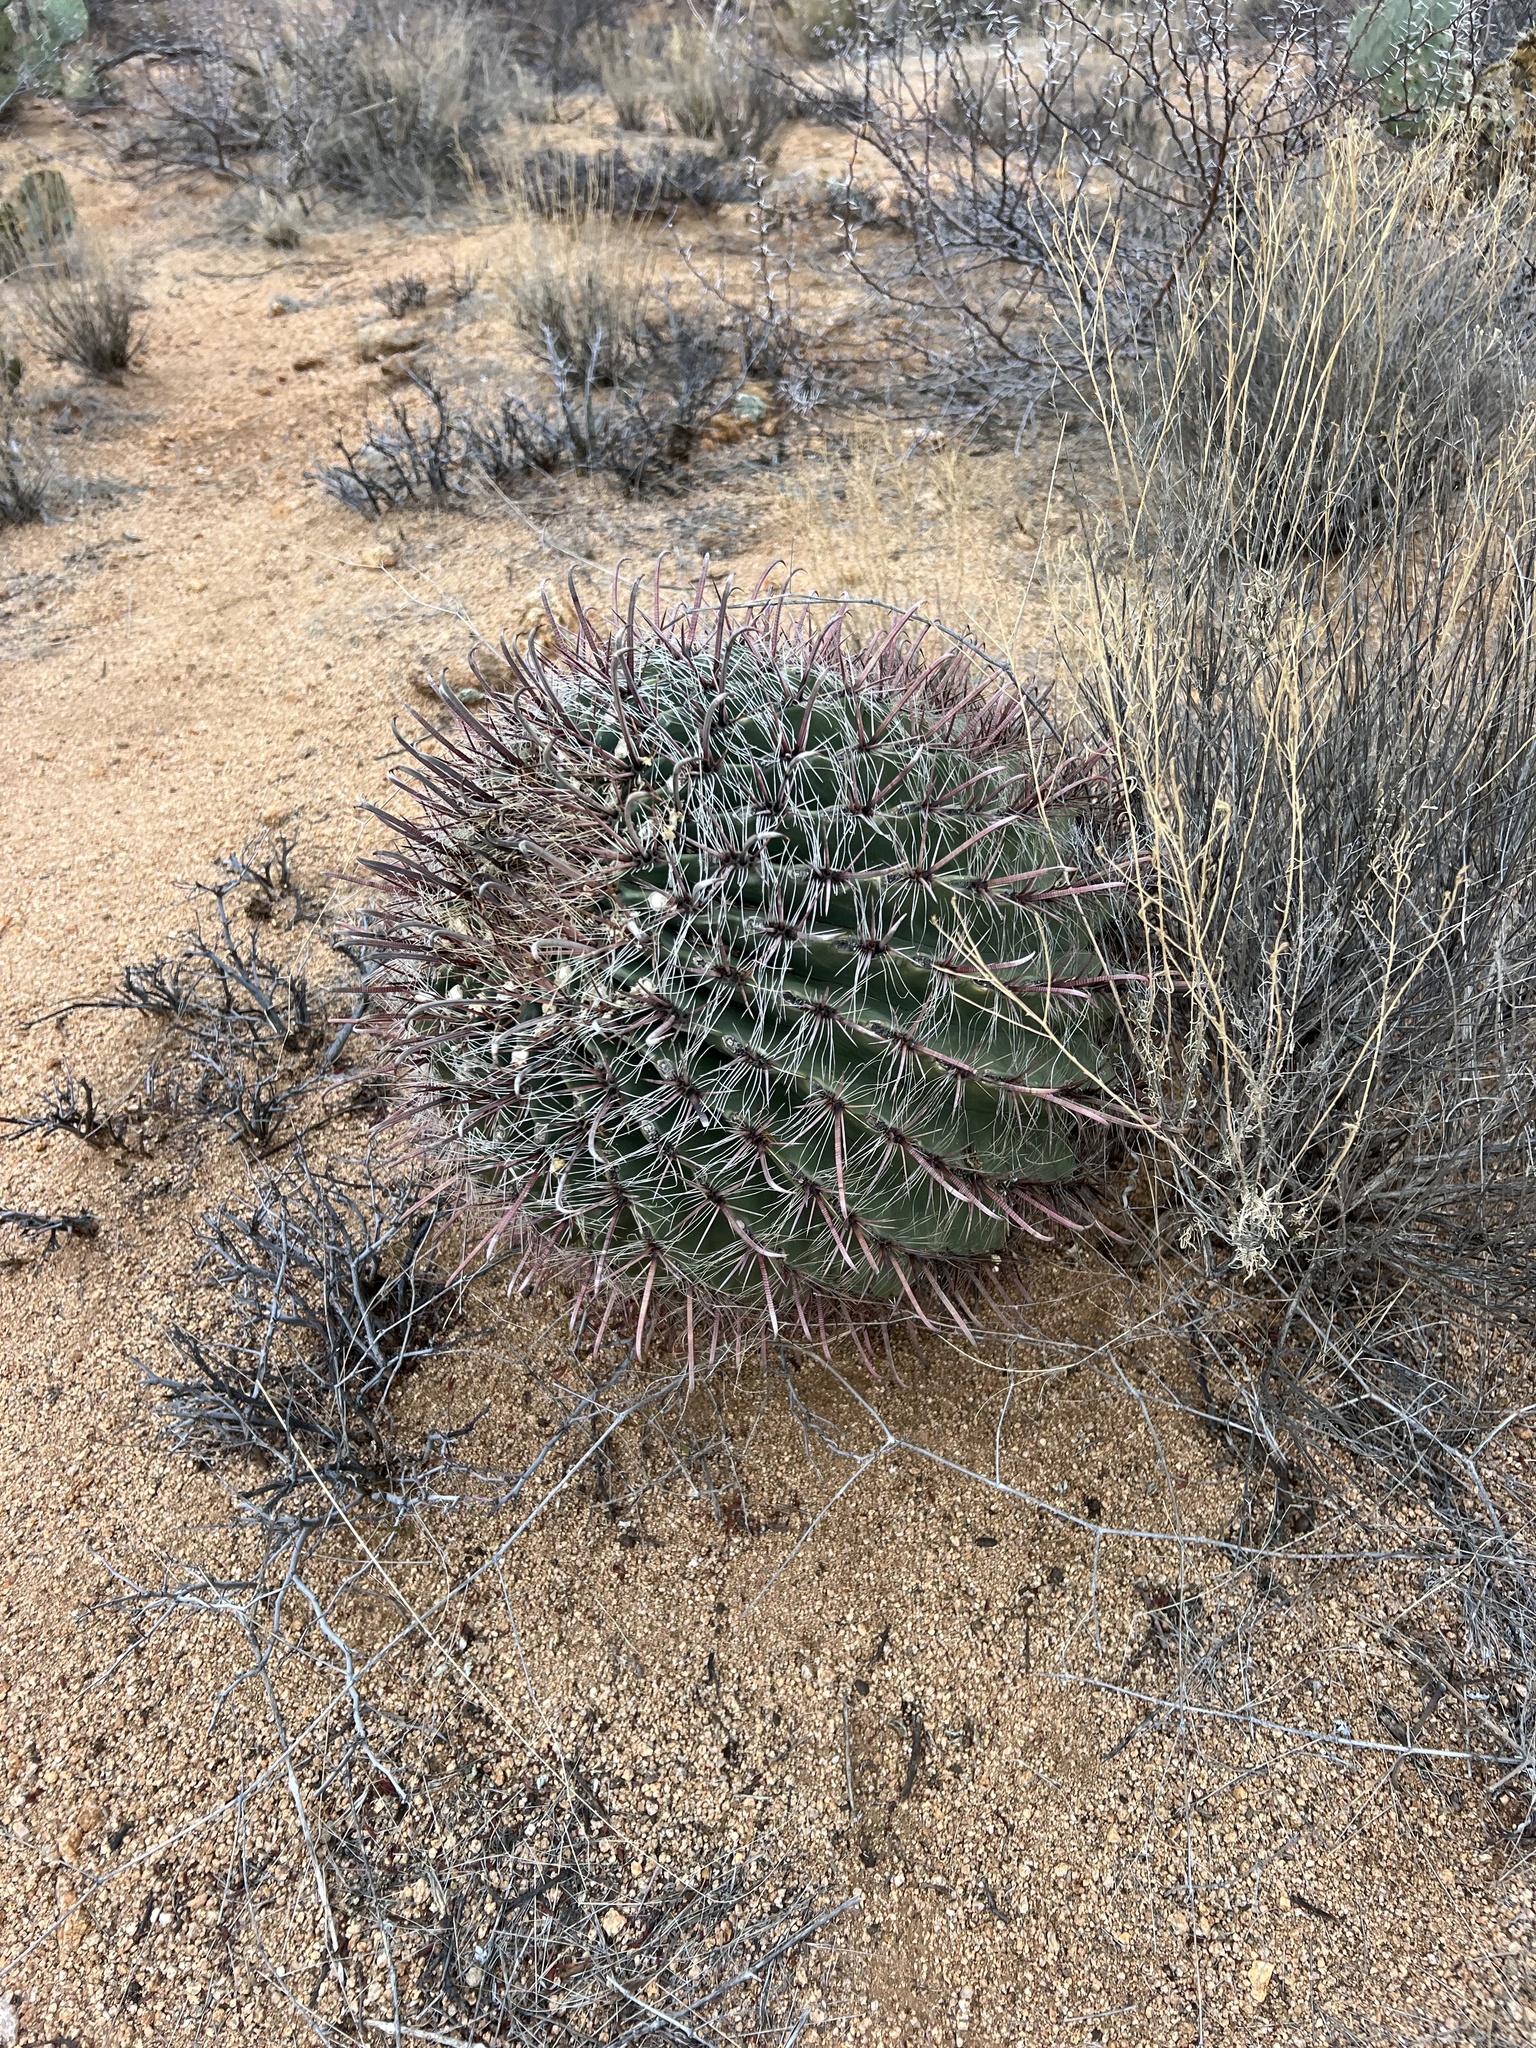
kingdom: Plantae
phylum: Tracheophyta
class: Magnoliopsida
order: Caryophyllales
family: Cactaceae
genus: Ferocactus
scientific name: Ferocactus wislizeni
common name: Candy barrel cactus
